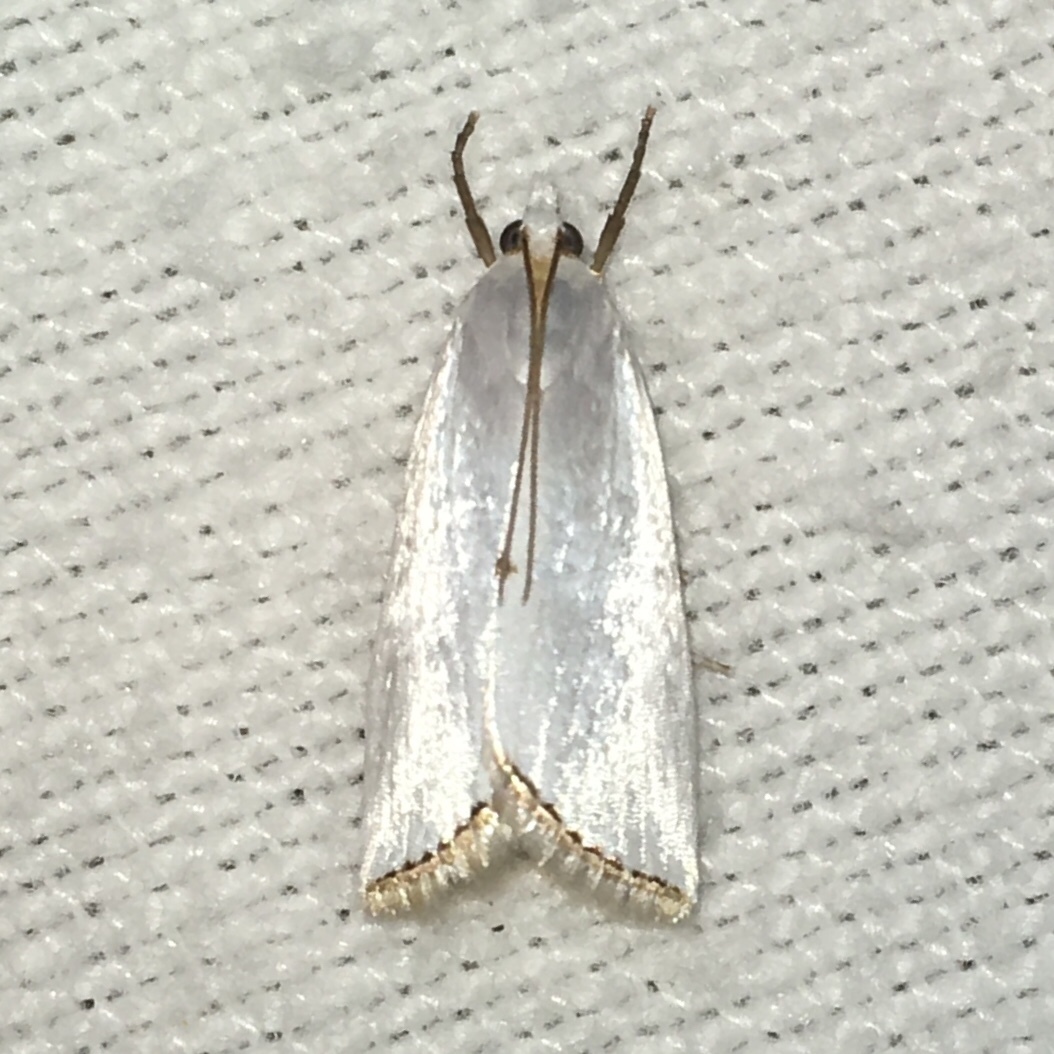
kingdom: Animalia
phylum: Arthropoda
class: Insecta
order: Lepidoptera
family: Crambidae
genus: Argyria
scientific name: Argyria nivalis
